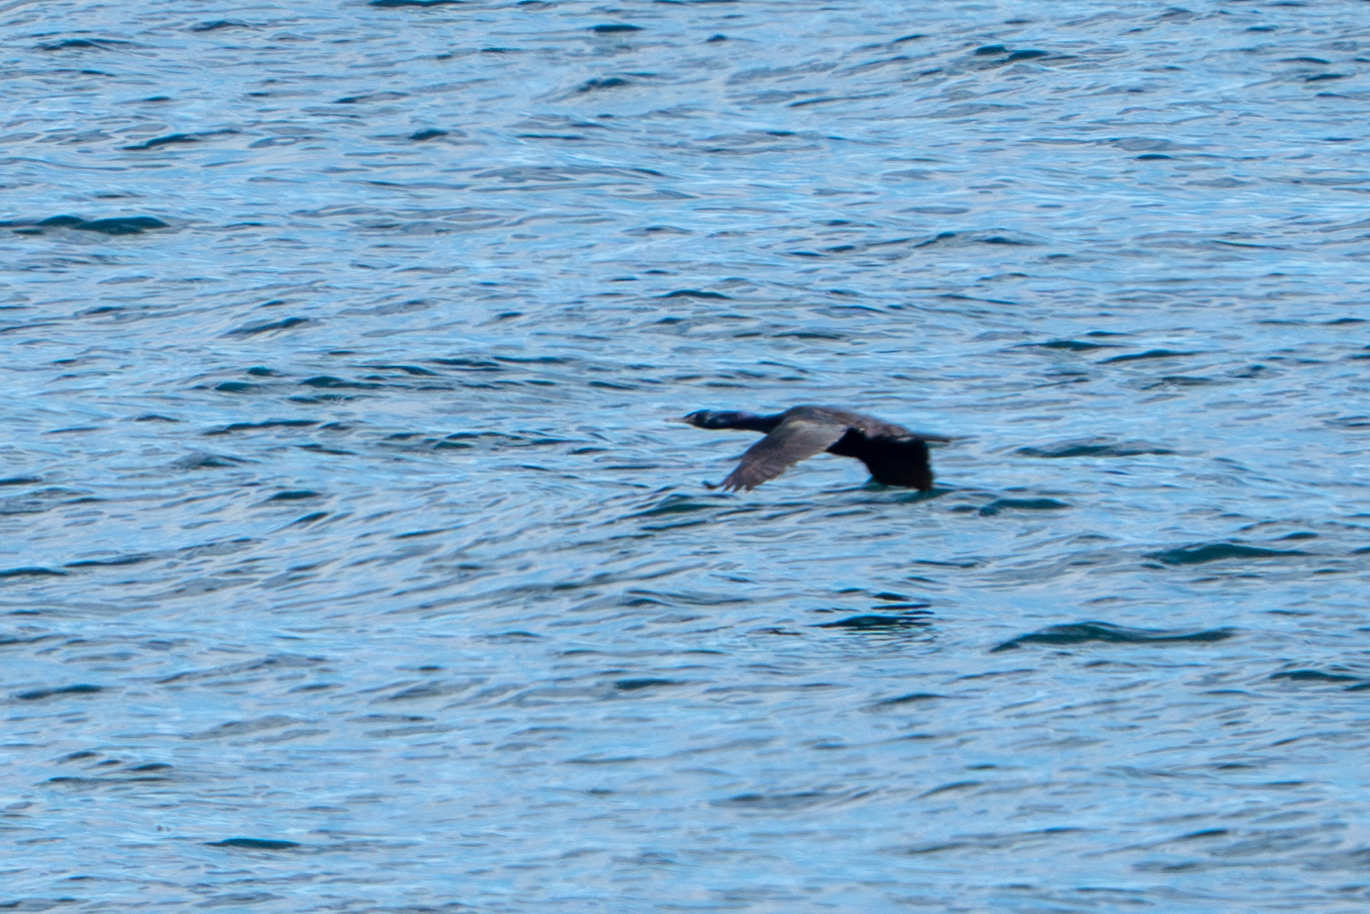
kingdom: Animalia
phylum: Chordata
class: Aves
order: Suliformes
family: Phalacrocoracidae
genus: Phalacrocorax
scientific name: Phalacrocorax pelagicus
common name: Pelagic cormorant
